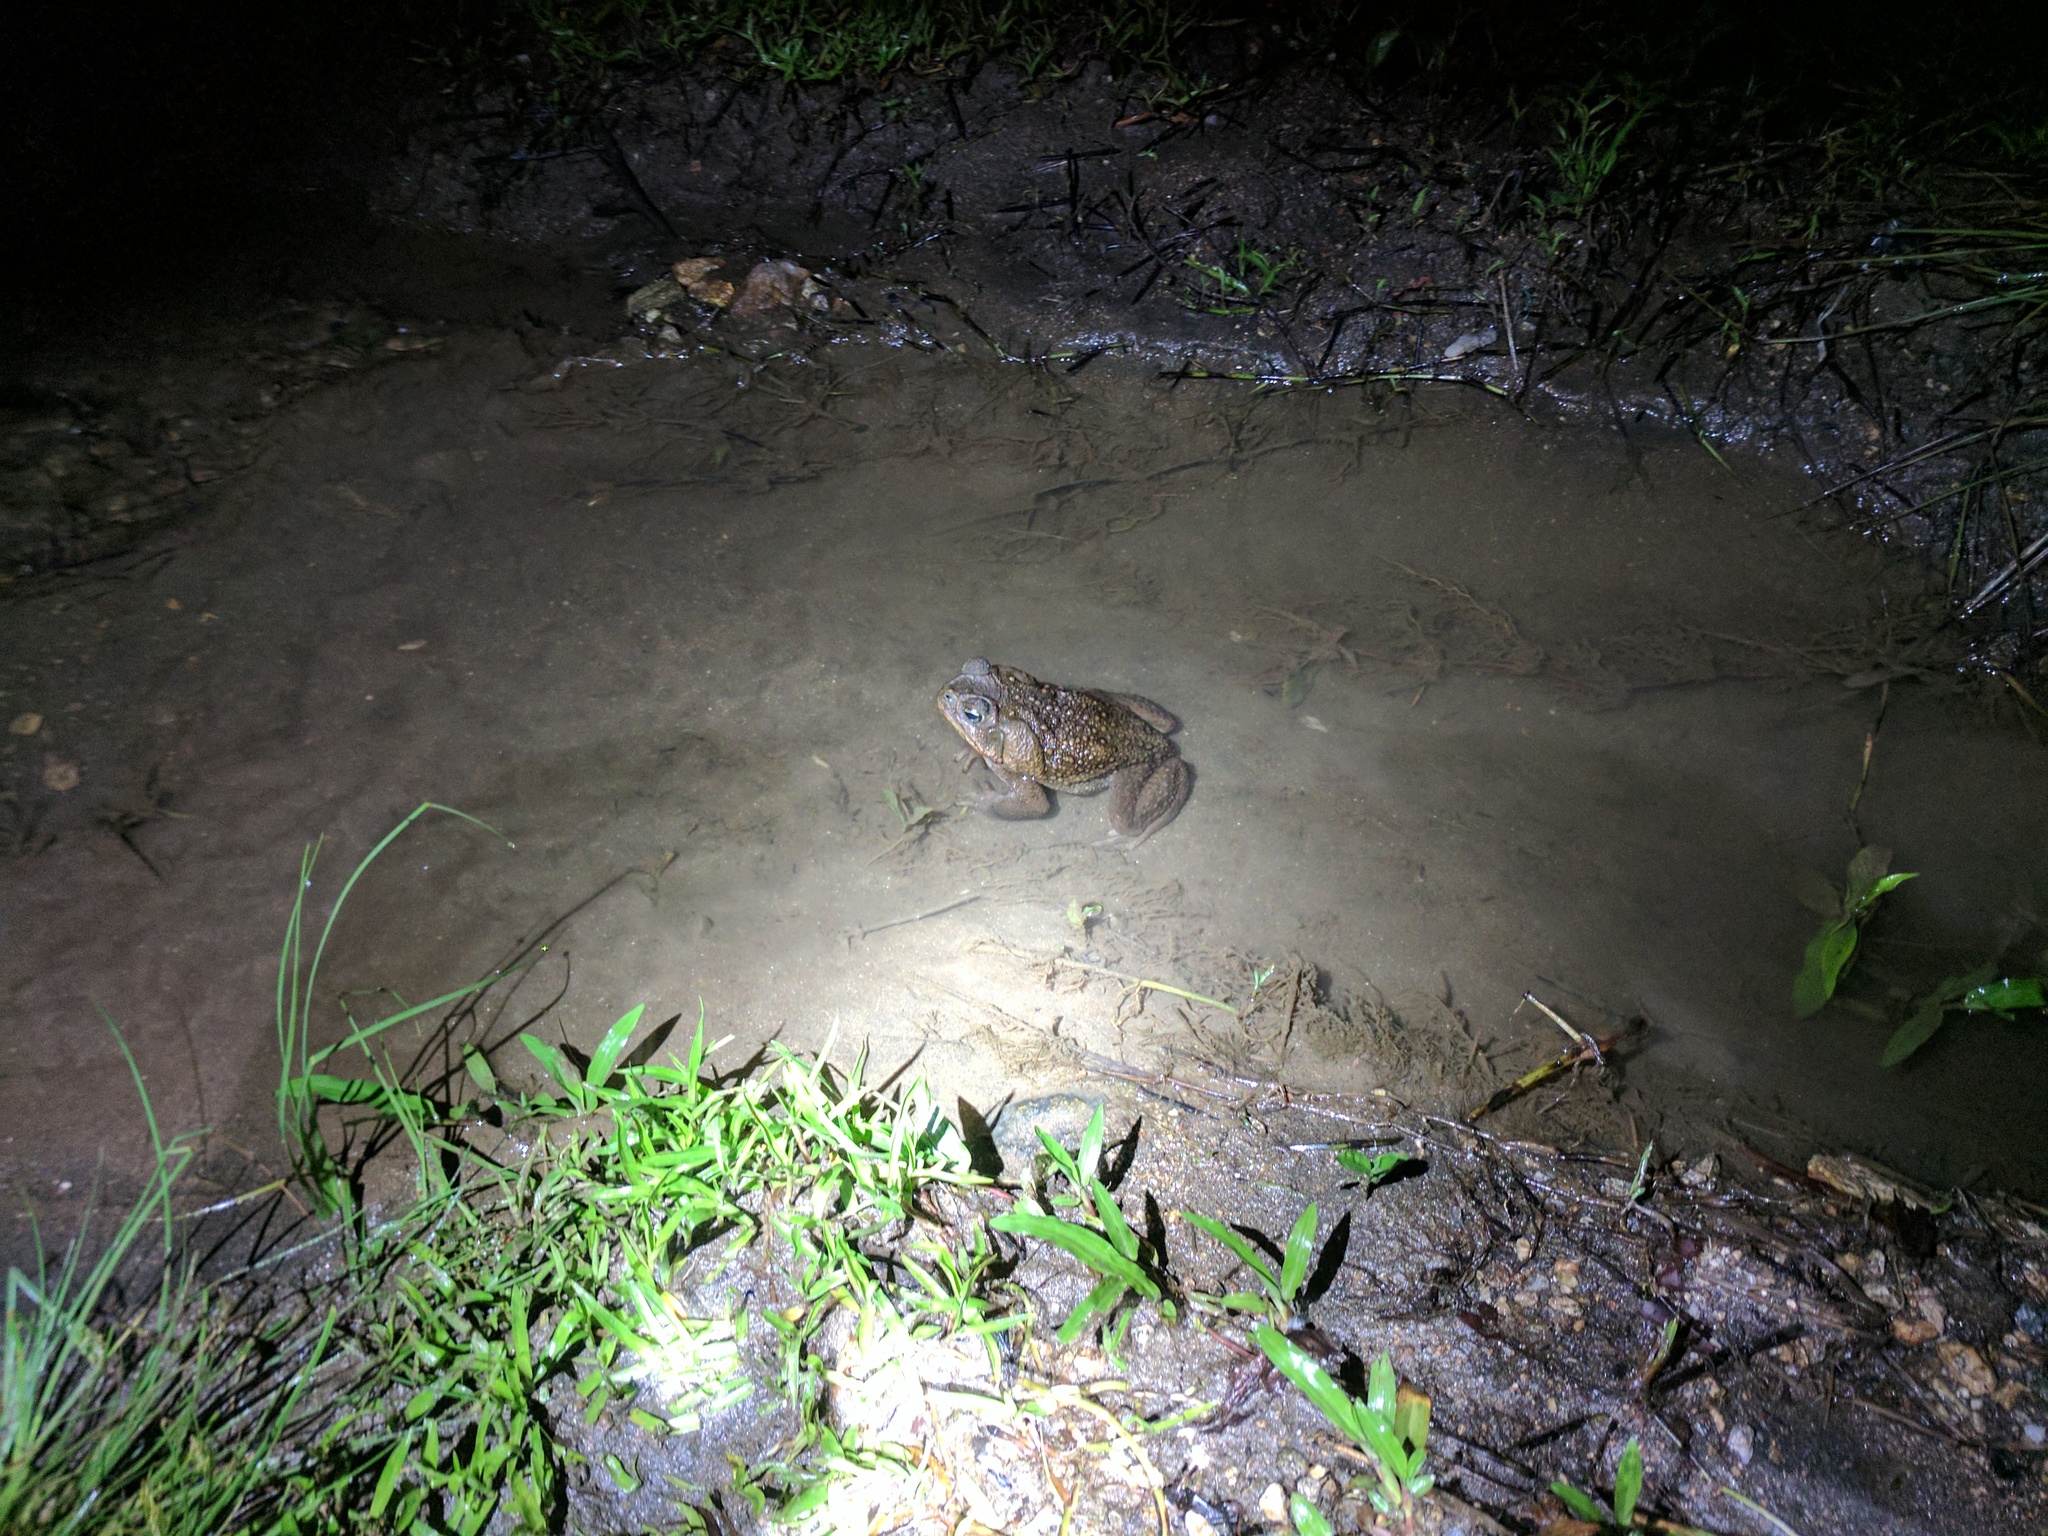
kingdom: Animalia
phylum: Chordata
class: Amphibia
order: Anura
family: Bufonidae
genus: Rhinella
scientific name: Rhinella horribilis
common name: Mesoamerican cane toad
